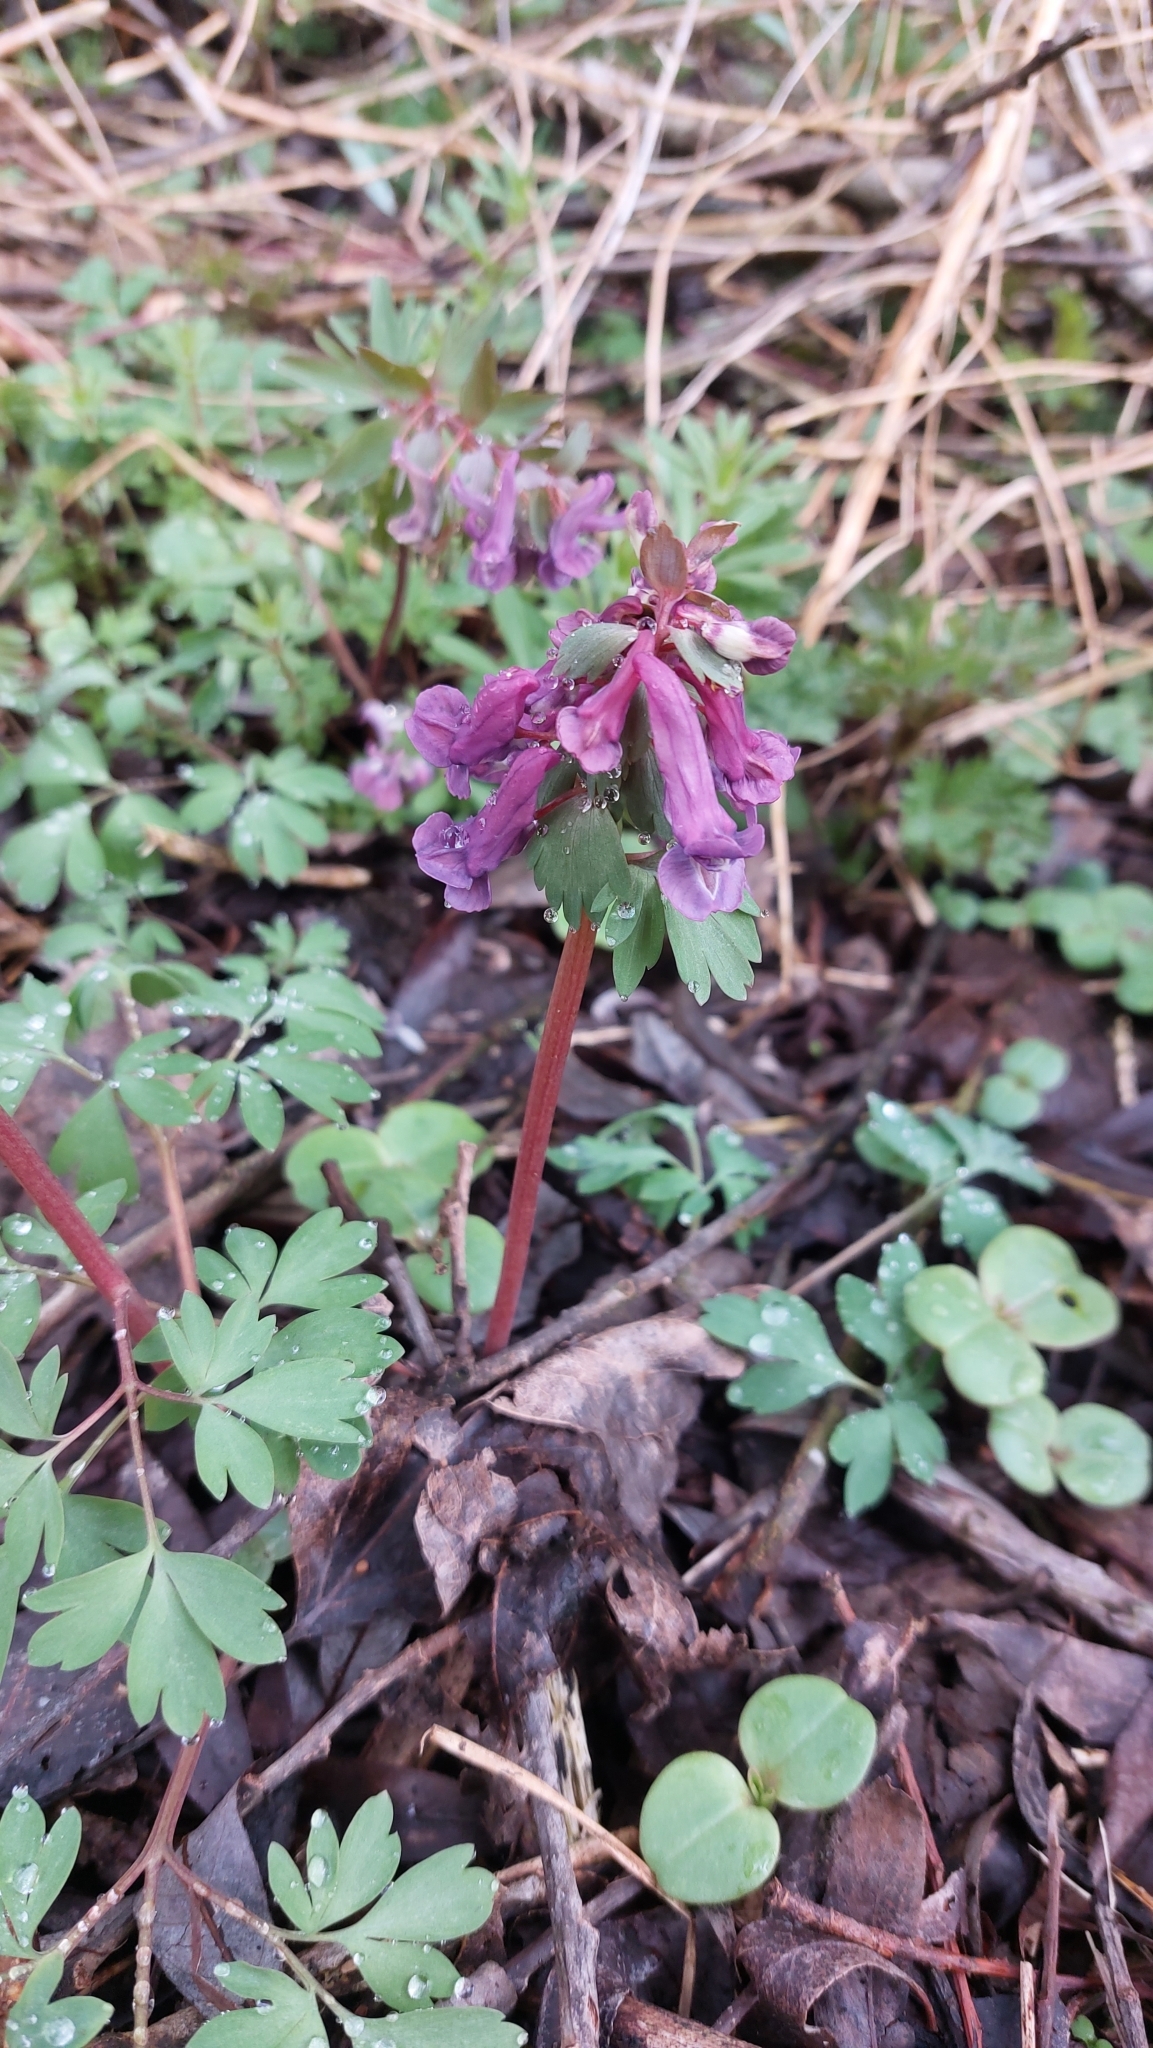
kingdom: Plantae
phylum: Tracheophyta
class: Magnoliopsida
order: Ranunculales
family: Papaveraceae
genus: Corydalis
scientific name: Corydalis solida
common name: Bird-in-a-bush
